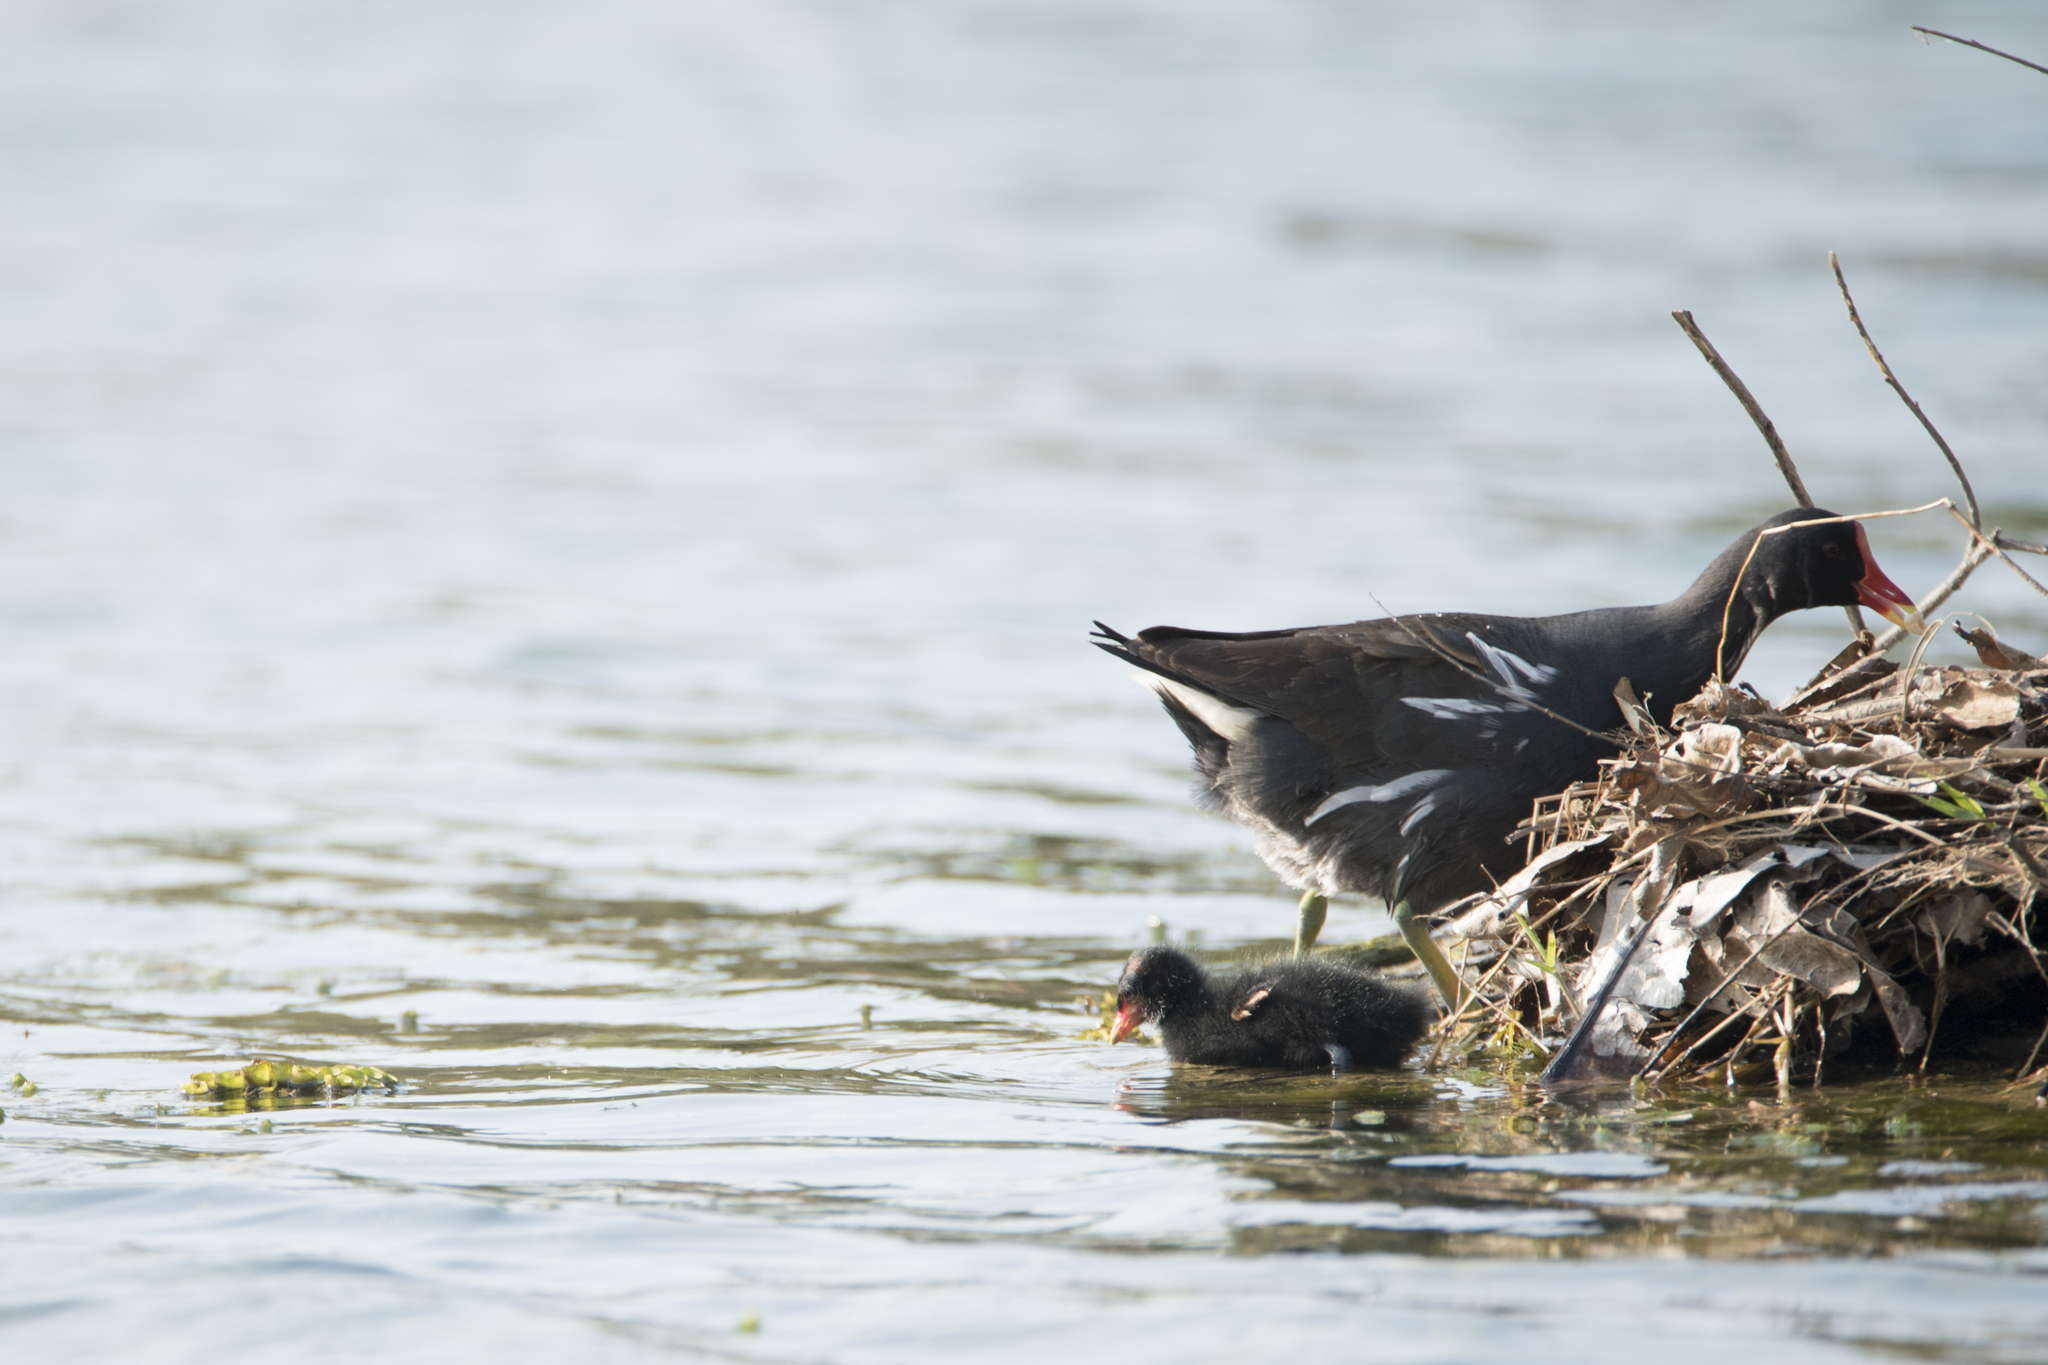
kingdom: Animalia
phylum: Chordata
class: Aves
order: Gruiformes
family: Rallidae
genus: Gallinula
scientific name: Gallinula chloropus
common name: Common moorhen
